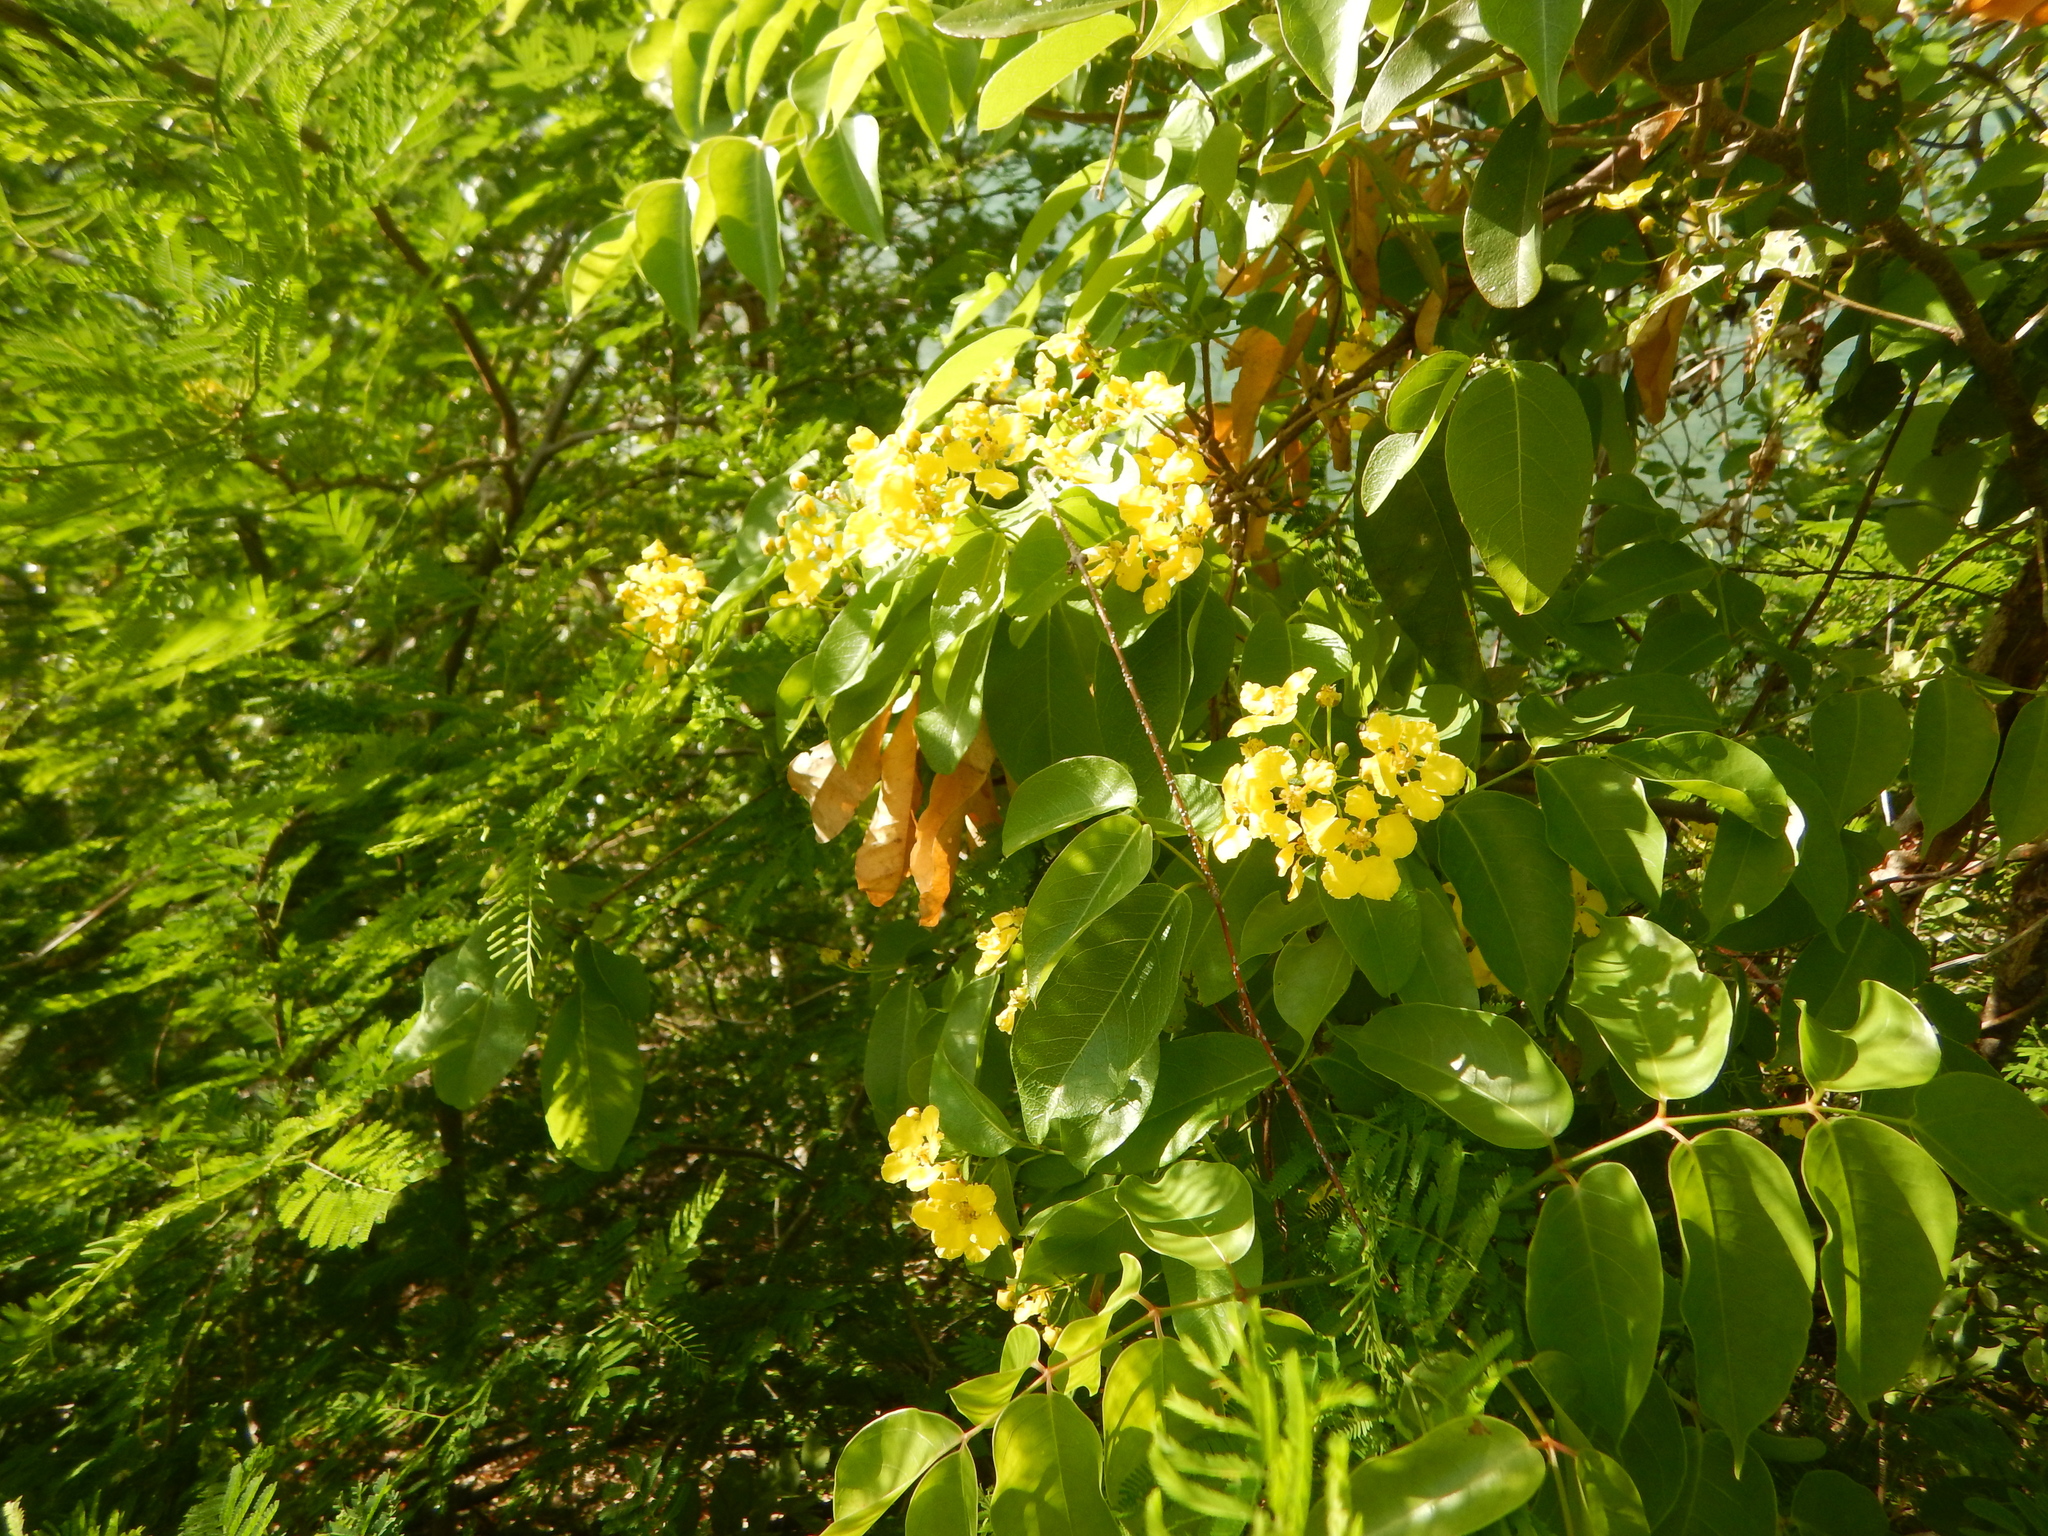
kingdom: Plantae
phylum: Tracheophyta
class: Magnoliopsida
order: Malpighiales
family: Malpighiaceae
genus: Stigmaphyllon
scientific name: Stigmaphyllon emarginatum
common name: Monarch amazonvine
